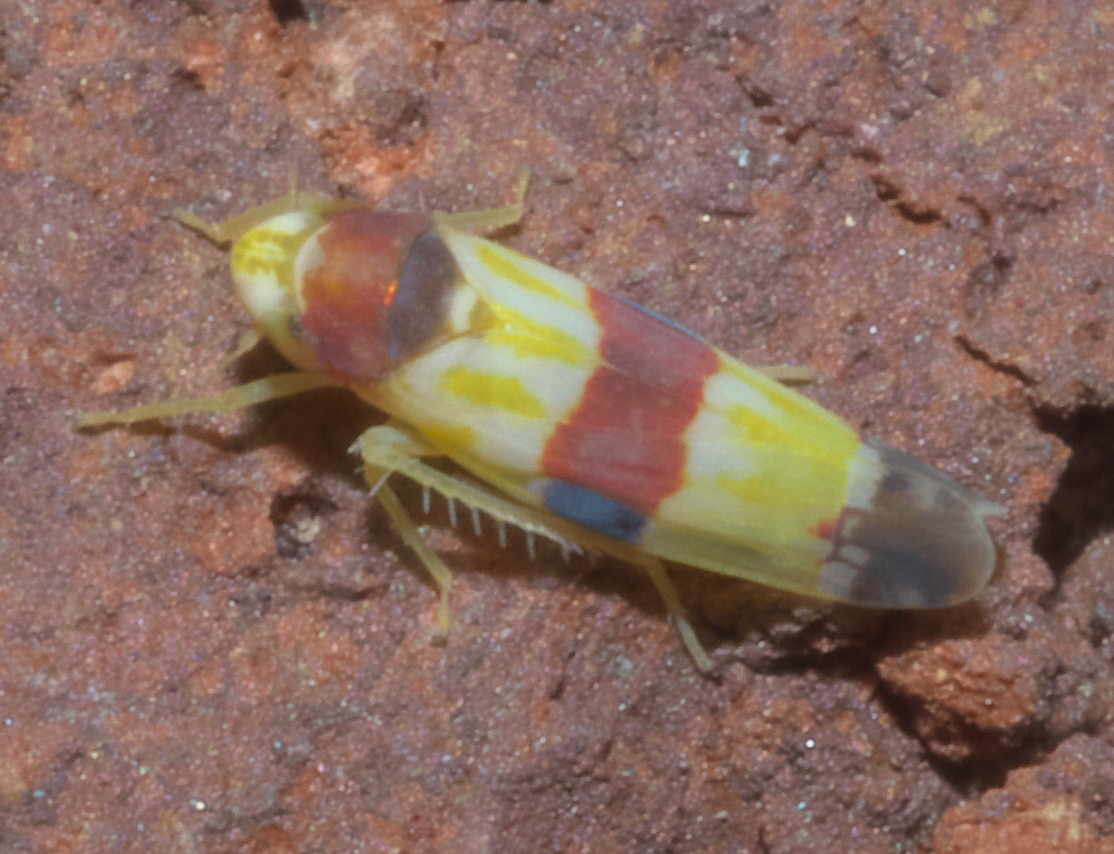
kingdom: Animalia
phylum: Arthropoda
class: Insecta
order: Hemiptera
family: Cicadellidae
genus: Erythroneura
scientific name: Erythroneura diva
